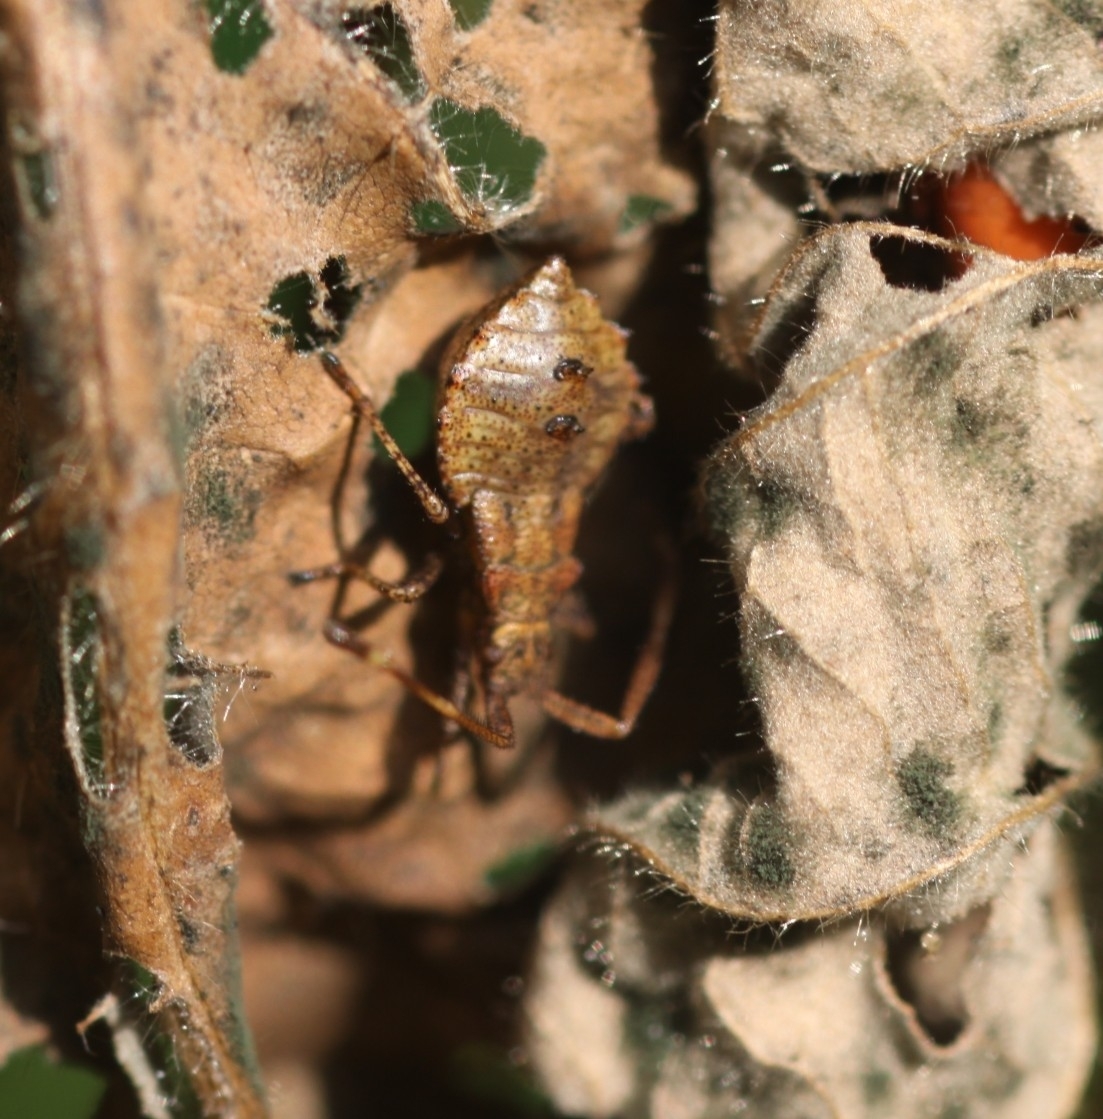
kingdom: Animalia
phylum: Arthropoda
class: Insecta
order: Hemiptera
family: Coreidae
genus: Coreus
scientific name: Coreus marginatus
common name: Dock bug
